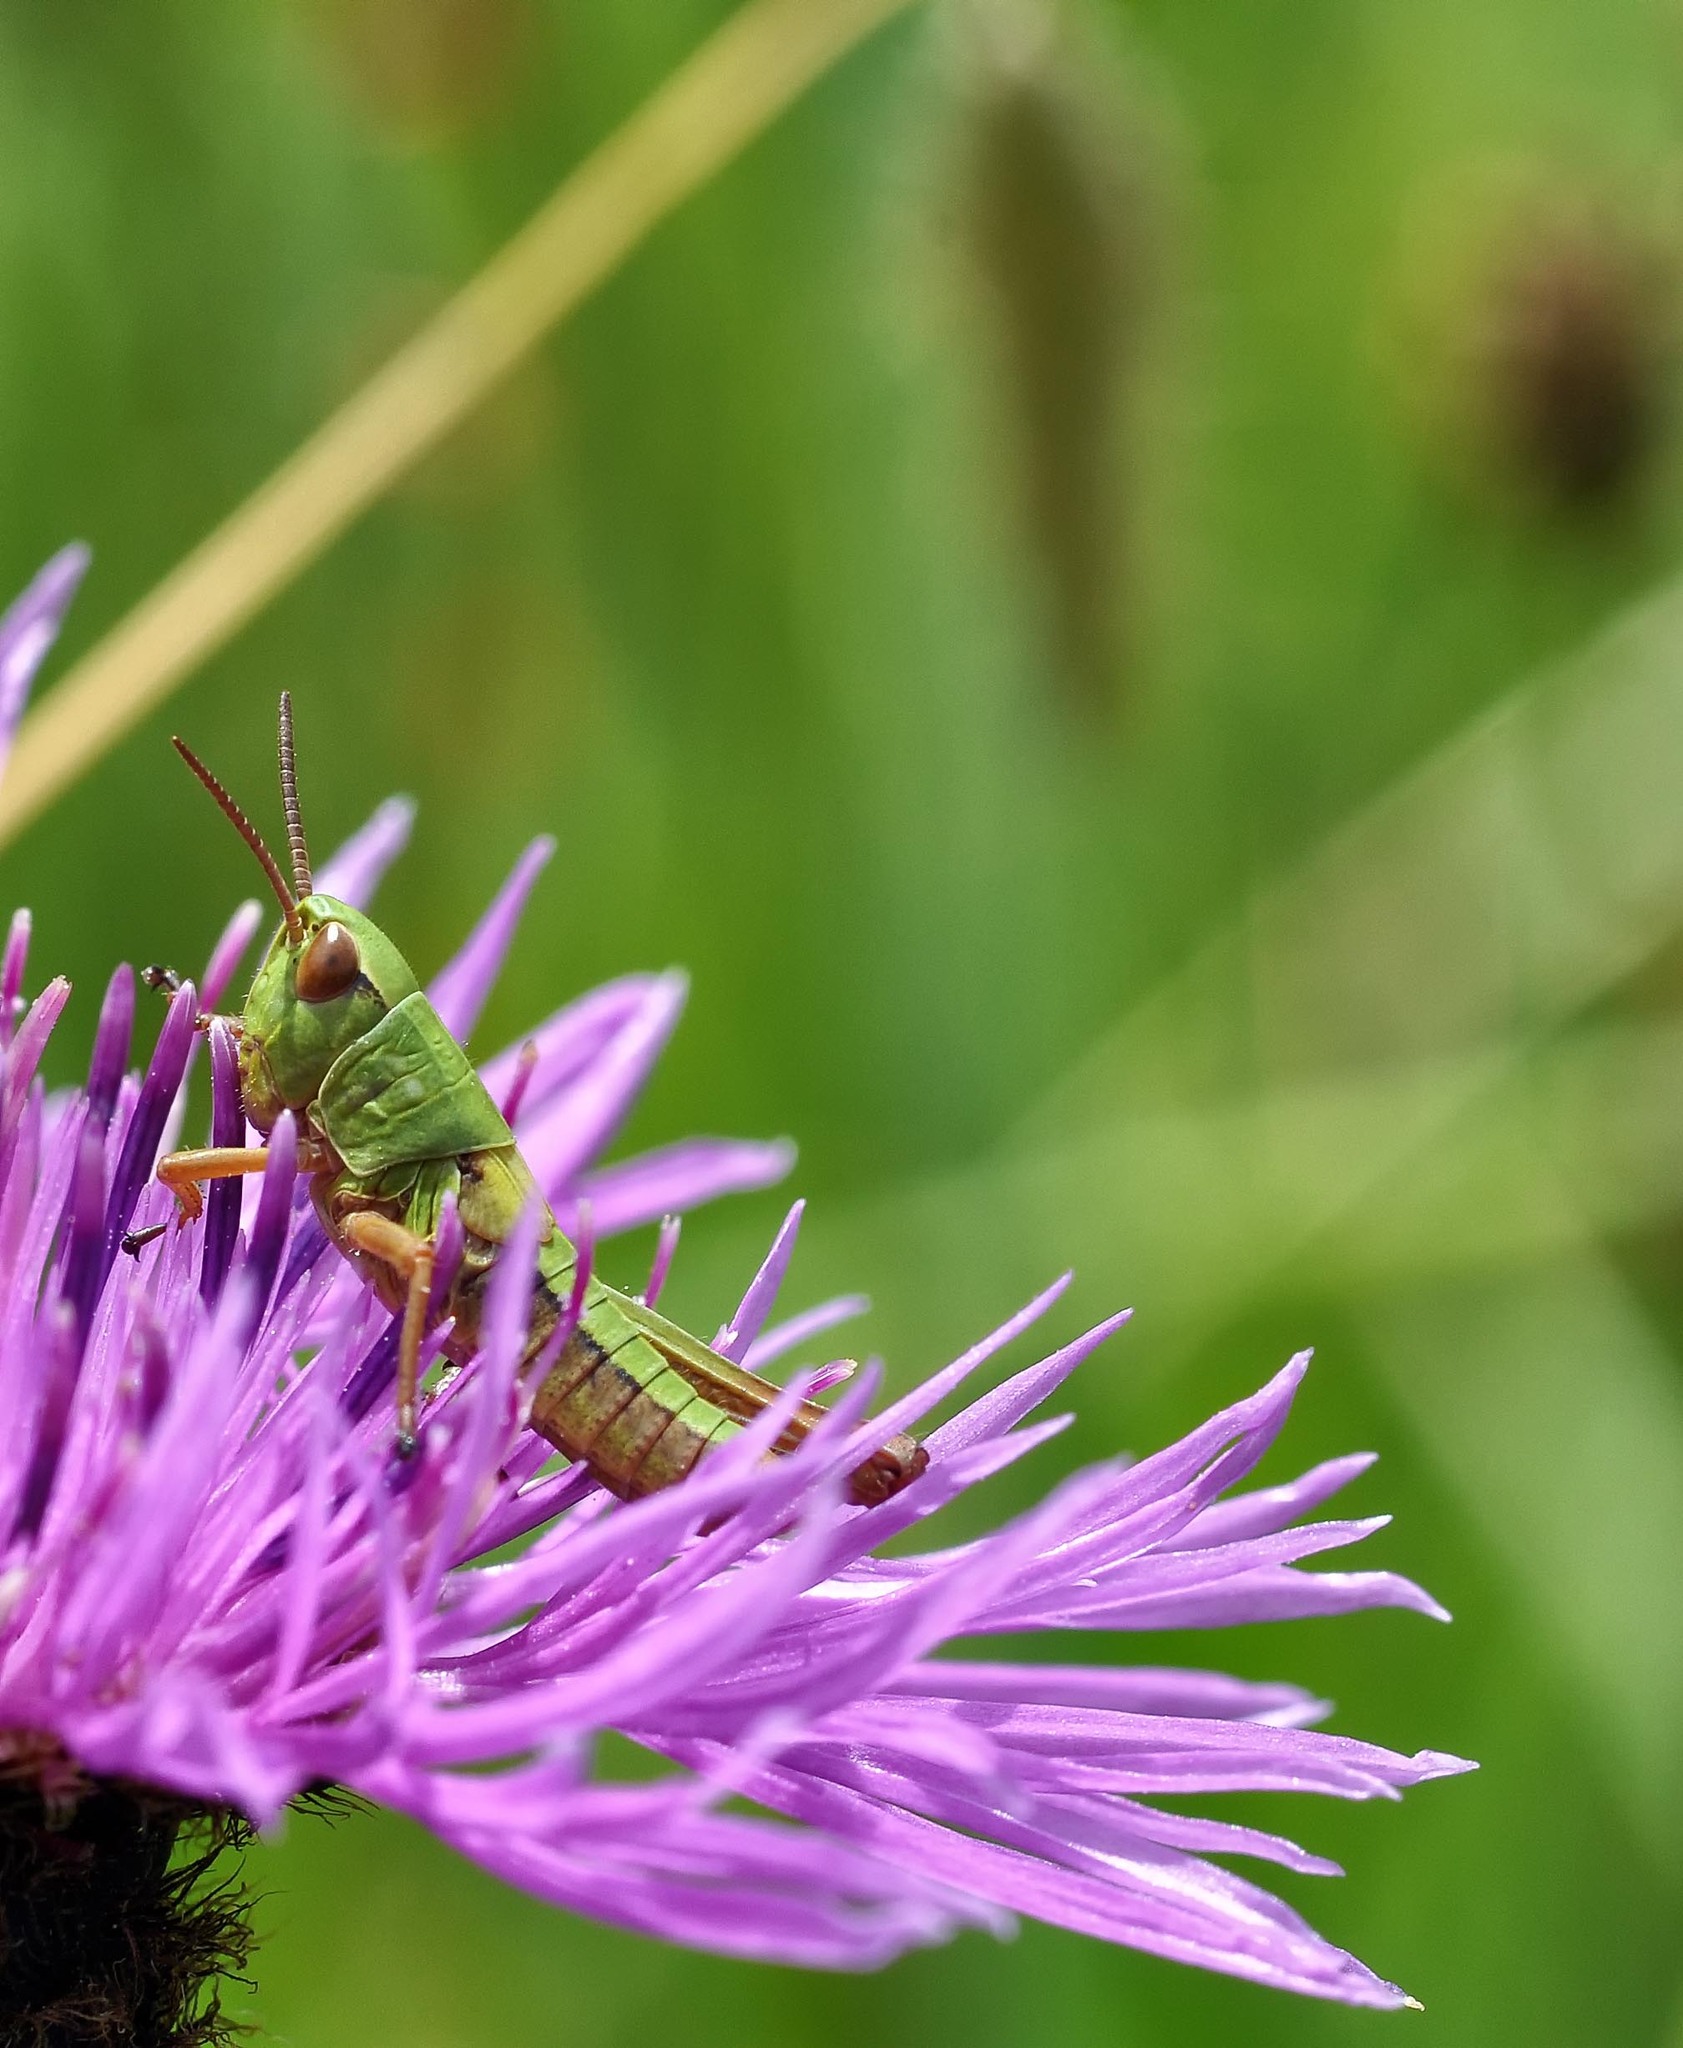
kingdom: Animalia
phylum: Arthropoda
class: Insecta
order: Orthoptera
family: Acrididae
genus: Pseudochorthippus
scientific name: Pseudochorthippus parallelus
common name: Meadow grasshopper
